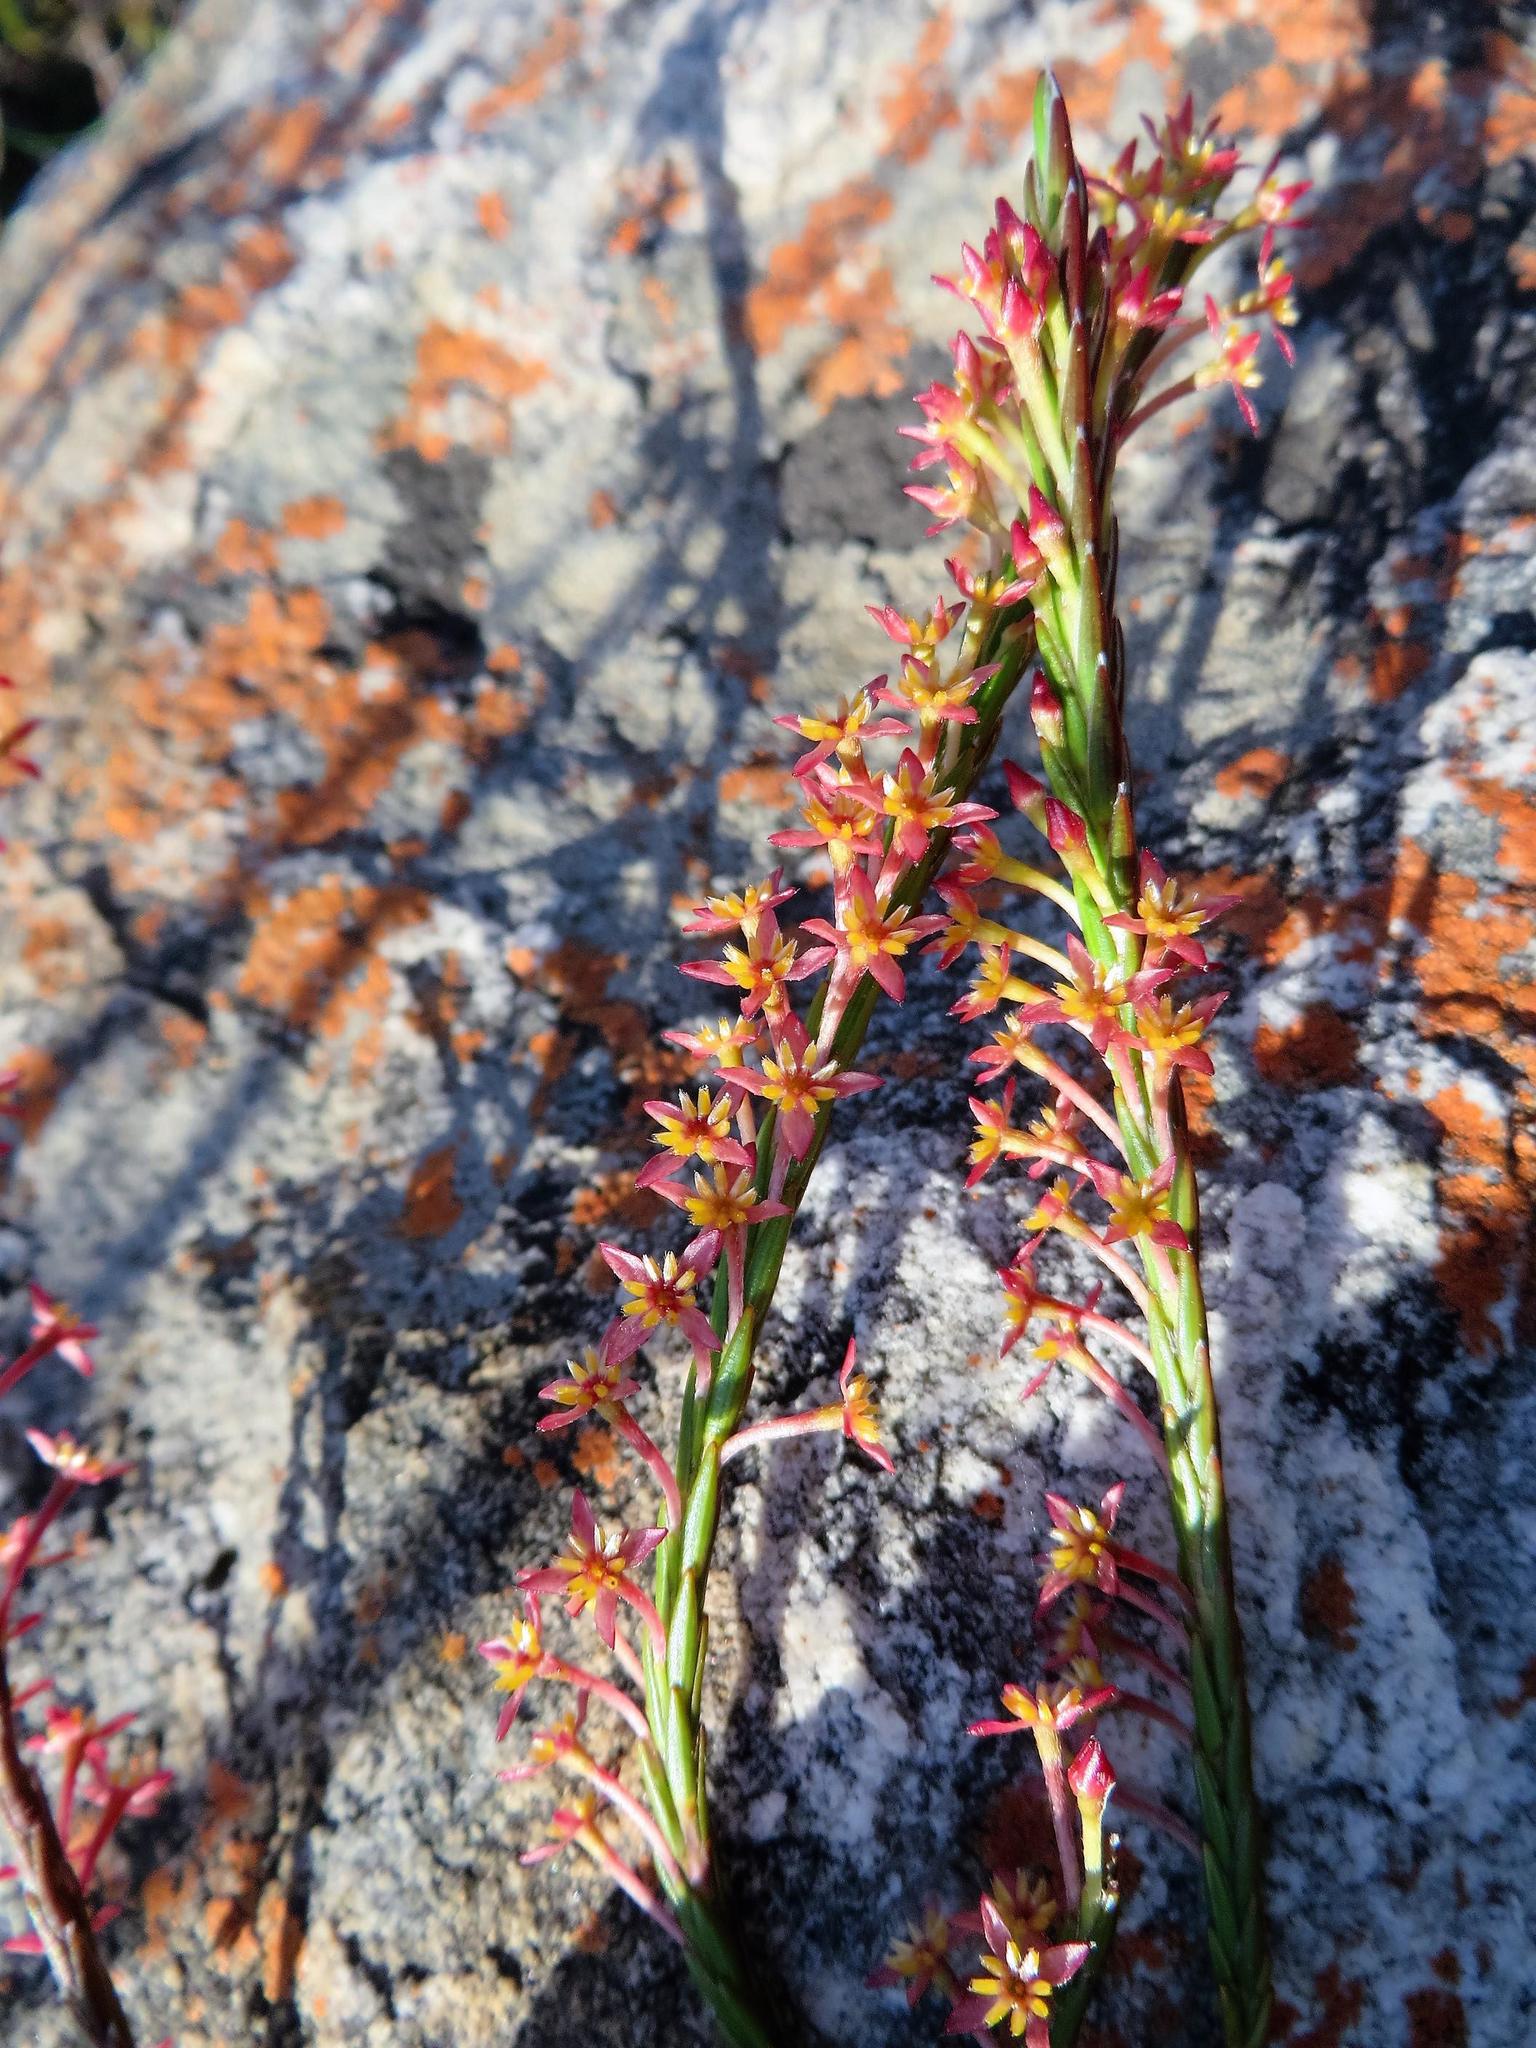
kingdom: Plantae
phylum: Tracheophyta
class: Magnoliopsida
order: Malvales
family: Thymelaeaceae
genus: Struthiola
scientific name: Struthiola ciliata
